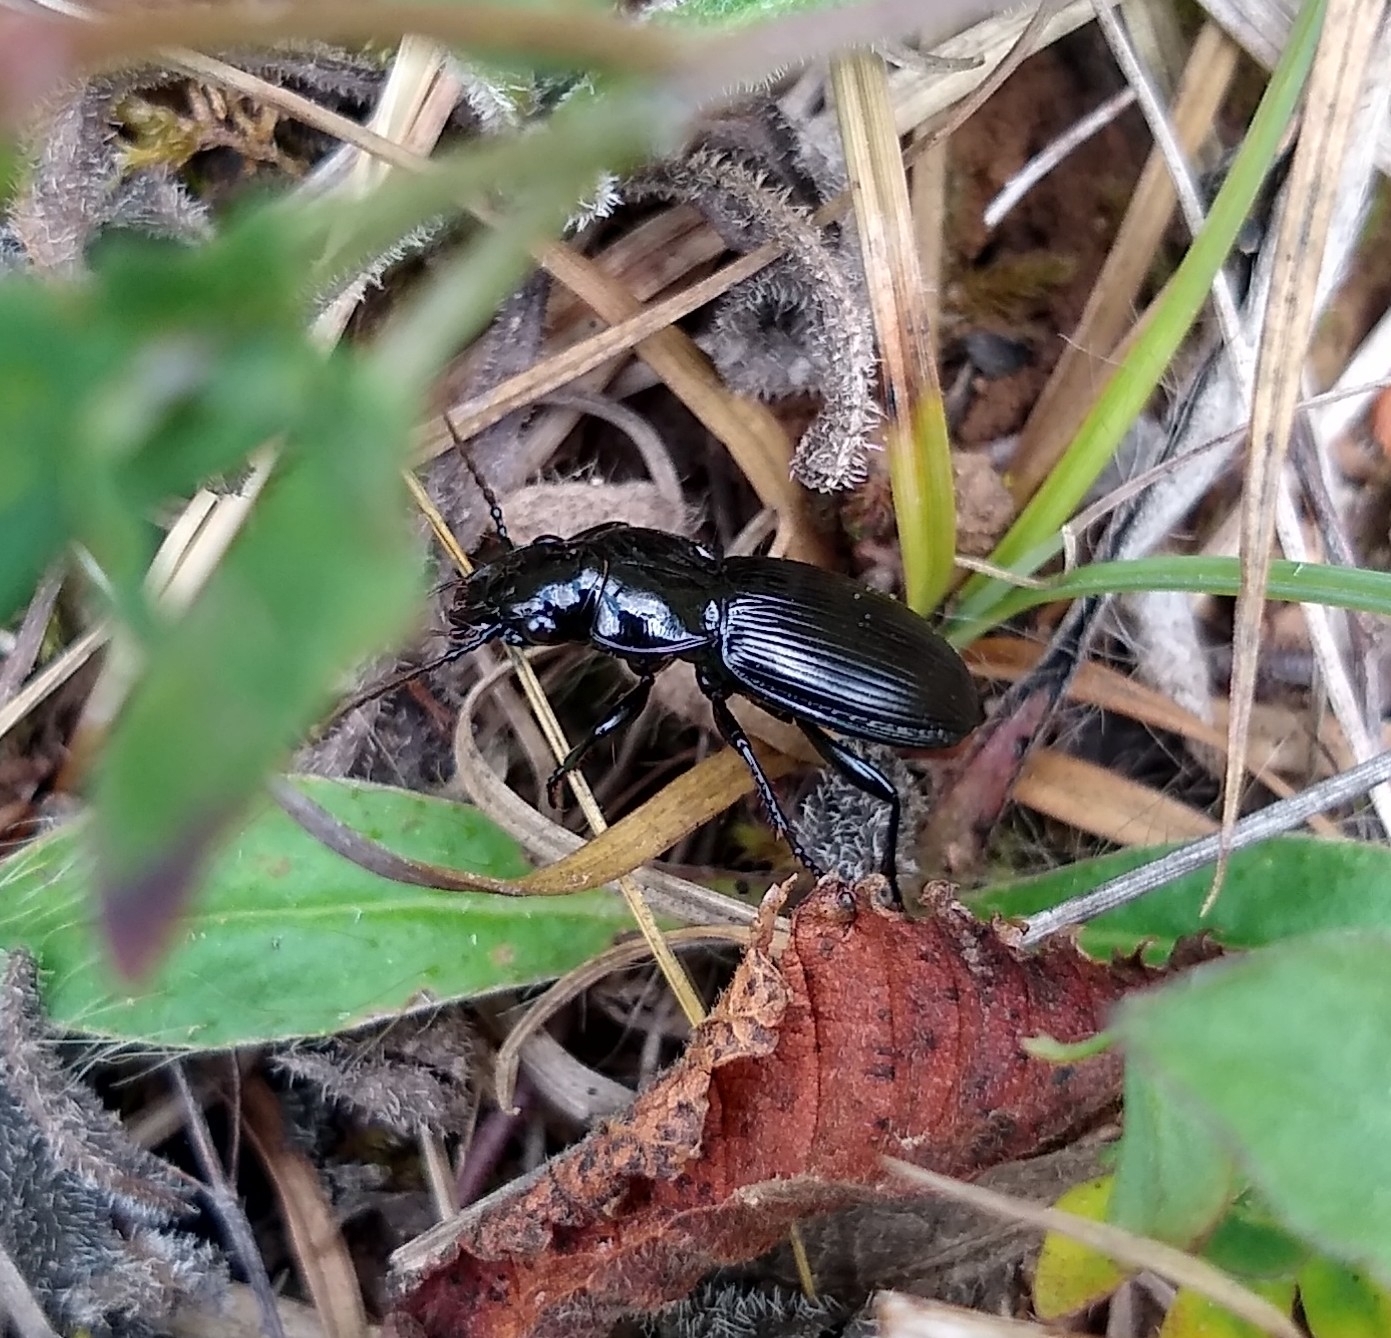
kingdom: Animalia
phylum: Arthropoda
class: Insecta
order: Coleoptera
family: Carabidae
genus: Pterostichus
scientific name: Pterostichus madidus
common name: Black clock
